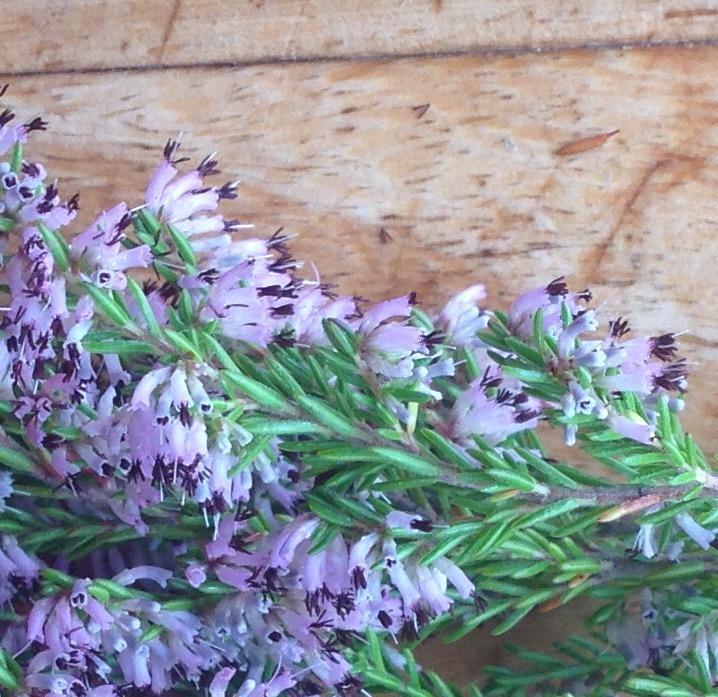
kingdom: Plantae
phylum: Tracheophyta
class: Magnoliopsida
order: Ericales
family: Ericaceae
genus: Erica
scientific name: Erica uberiflora
